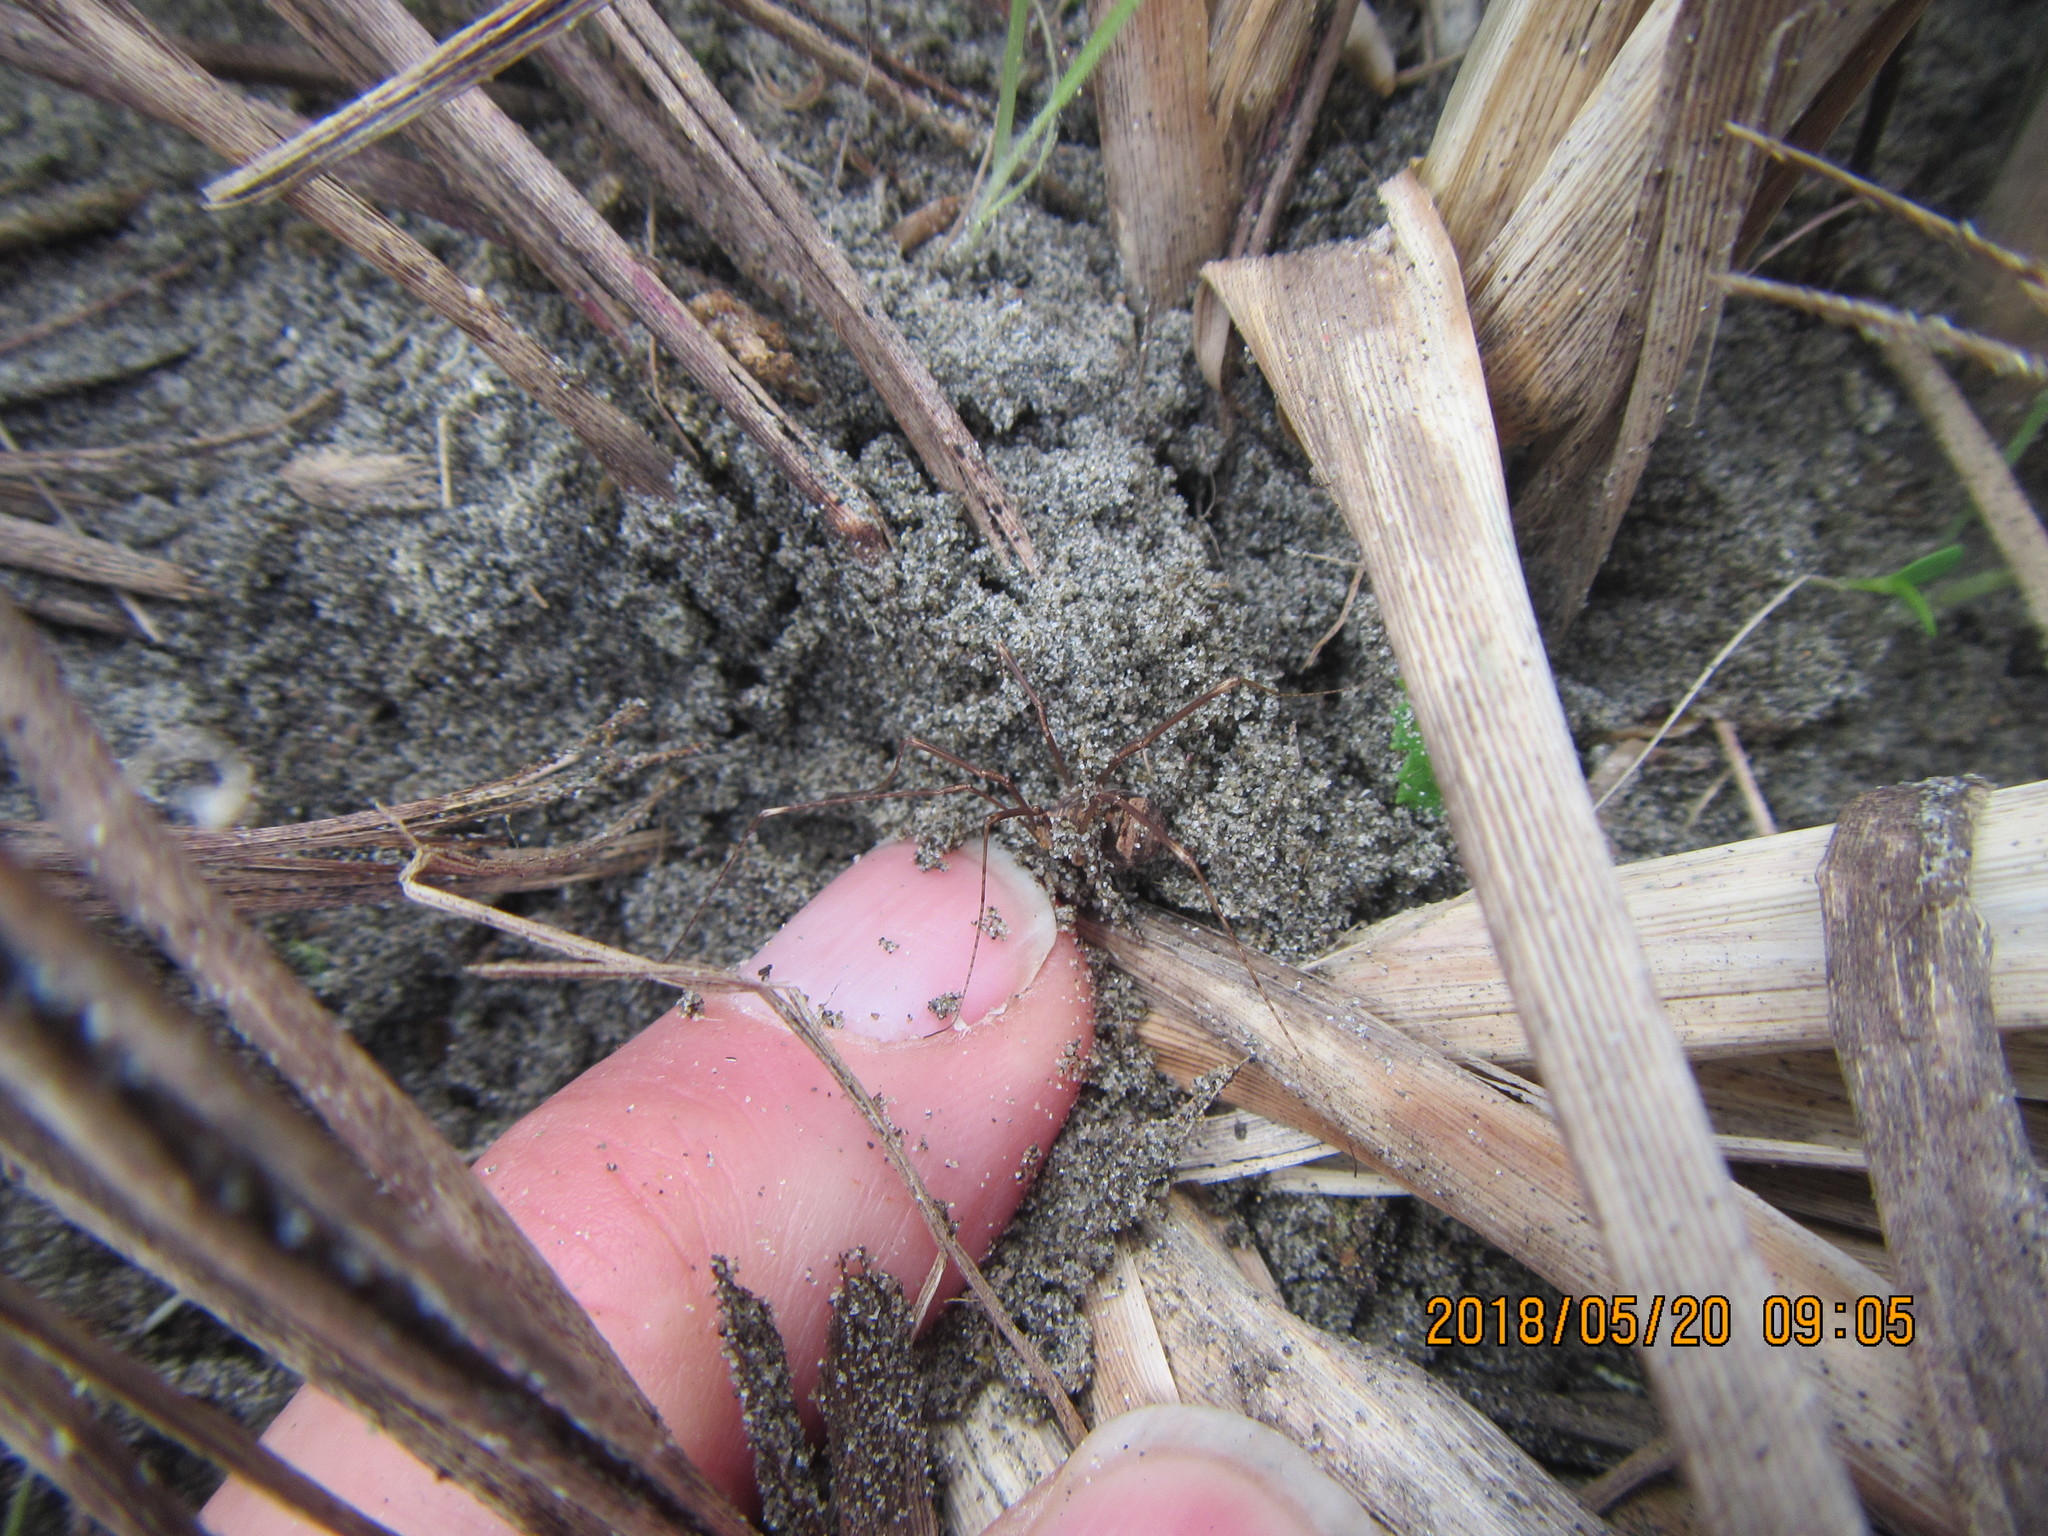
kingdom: Animalia
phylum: Arthropoda
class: Arachnida
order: Opiliones
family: Phalangiidae
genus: Phalangium
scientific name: Phalangium opilio
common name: Daddy longleg
